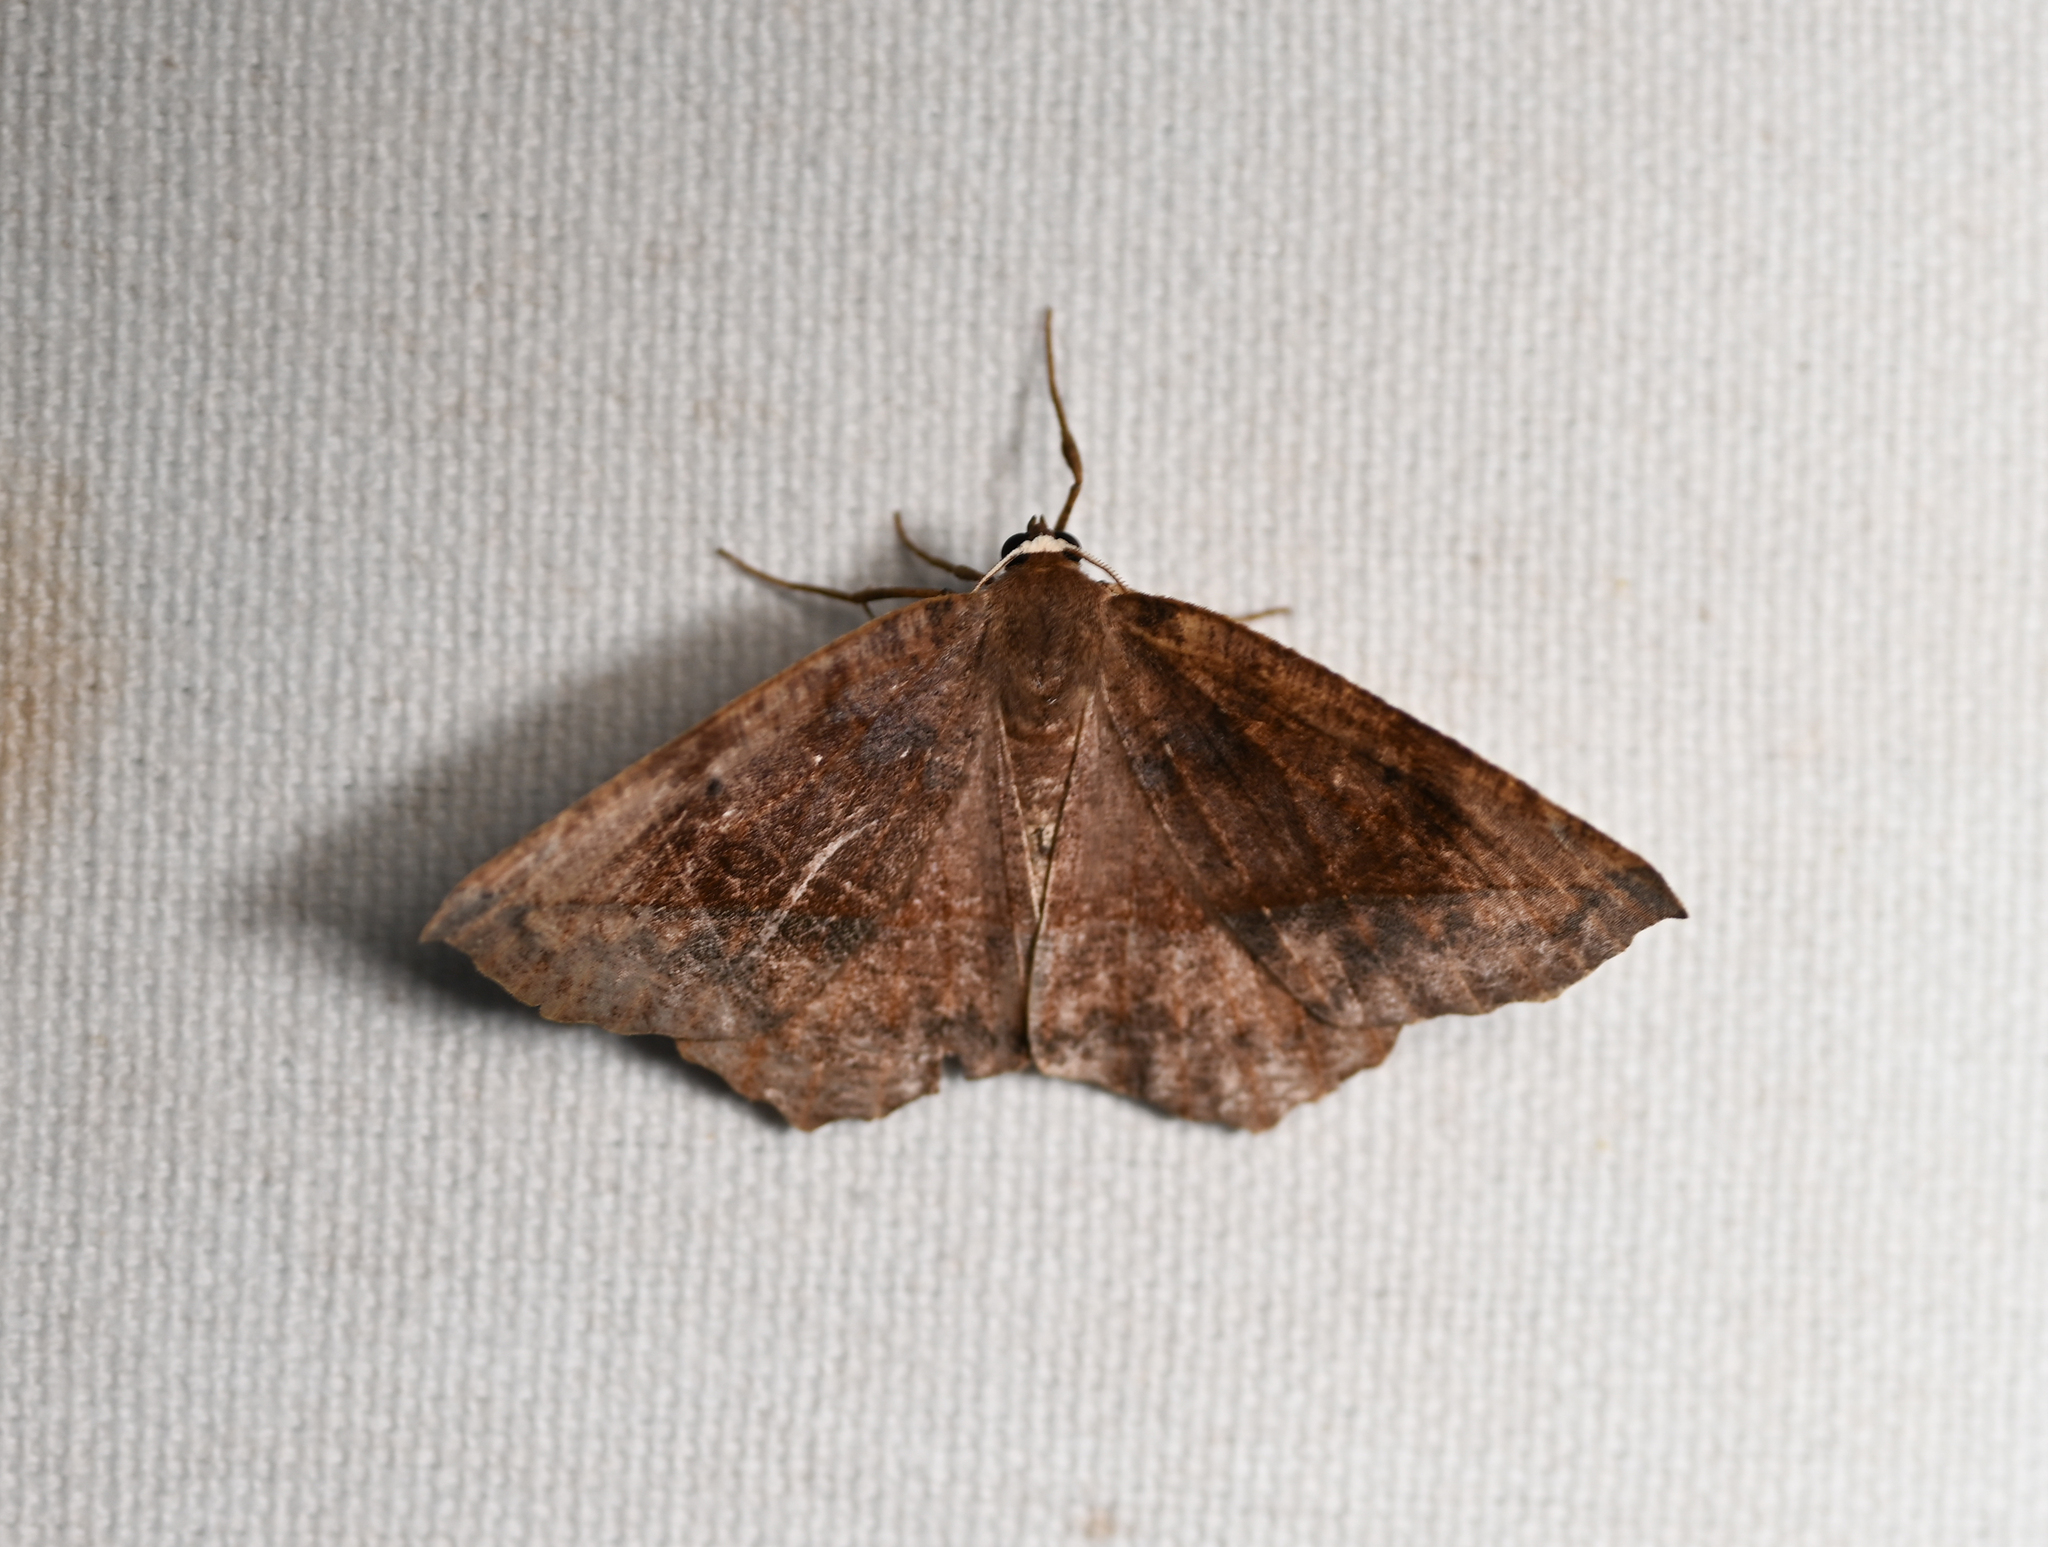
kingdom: Animalia
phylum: Arthropoda
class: Insecta
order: Lepidoptera
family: Geometridae
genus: Eutrapela
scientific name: Eutrapela clemataria
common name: Curved-toothed geometer
